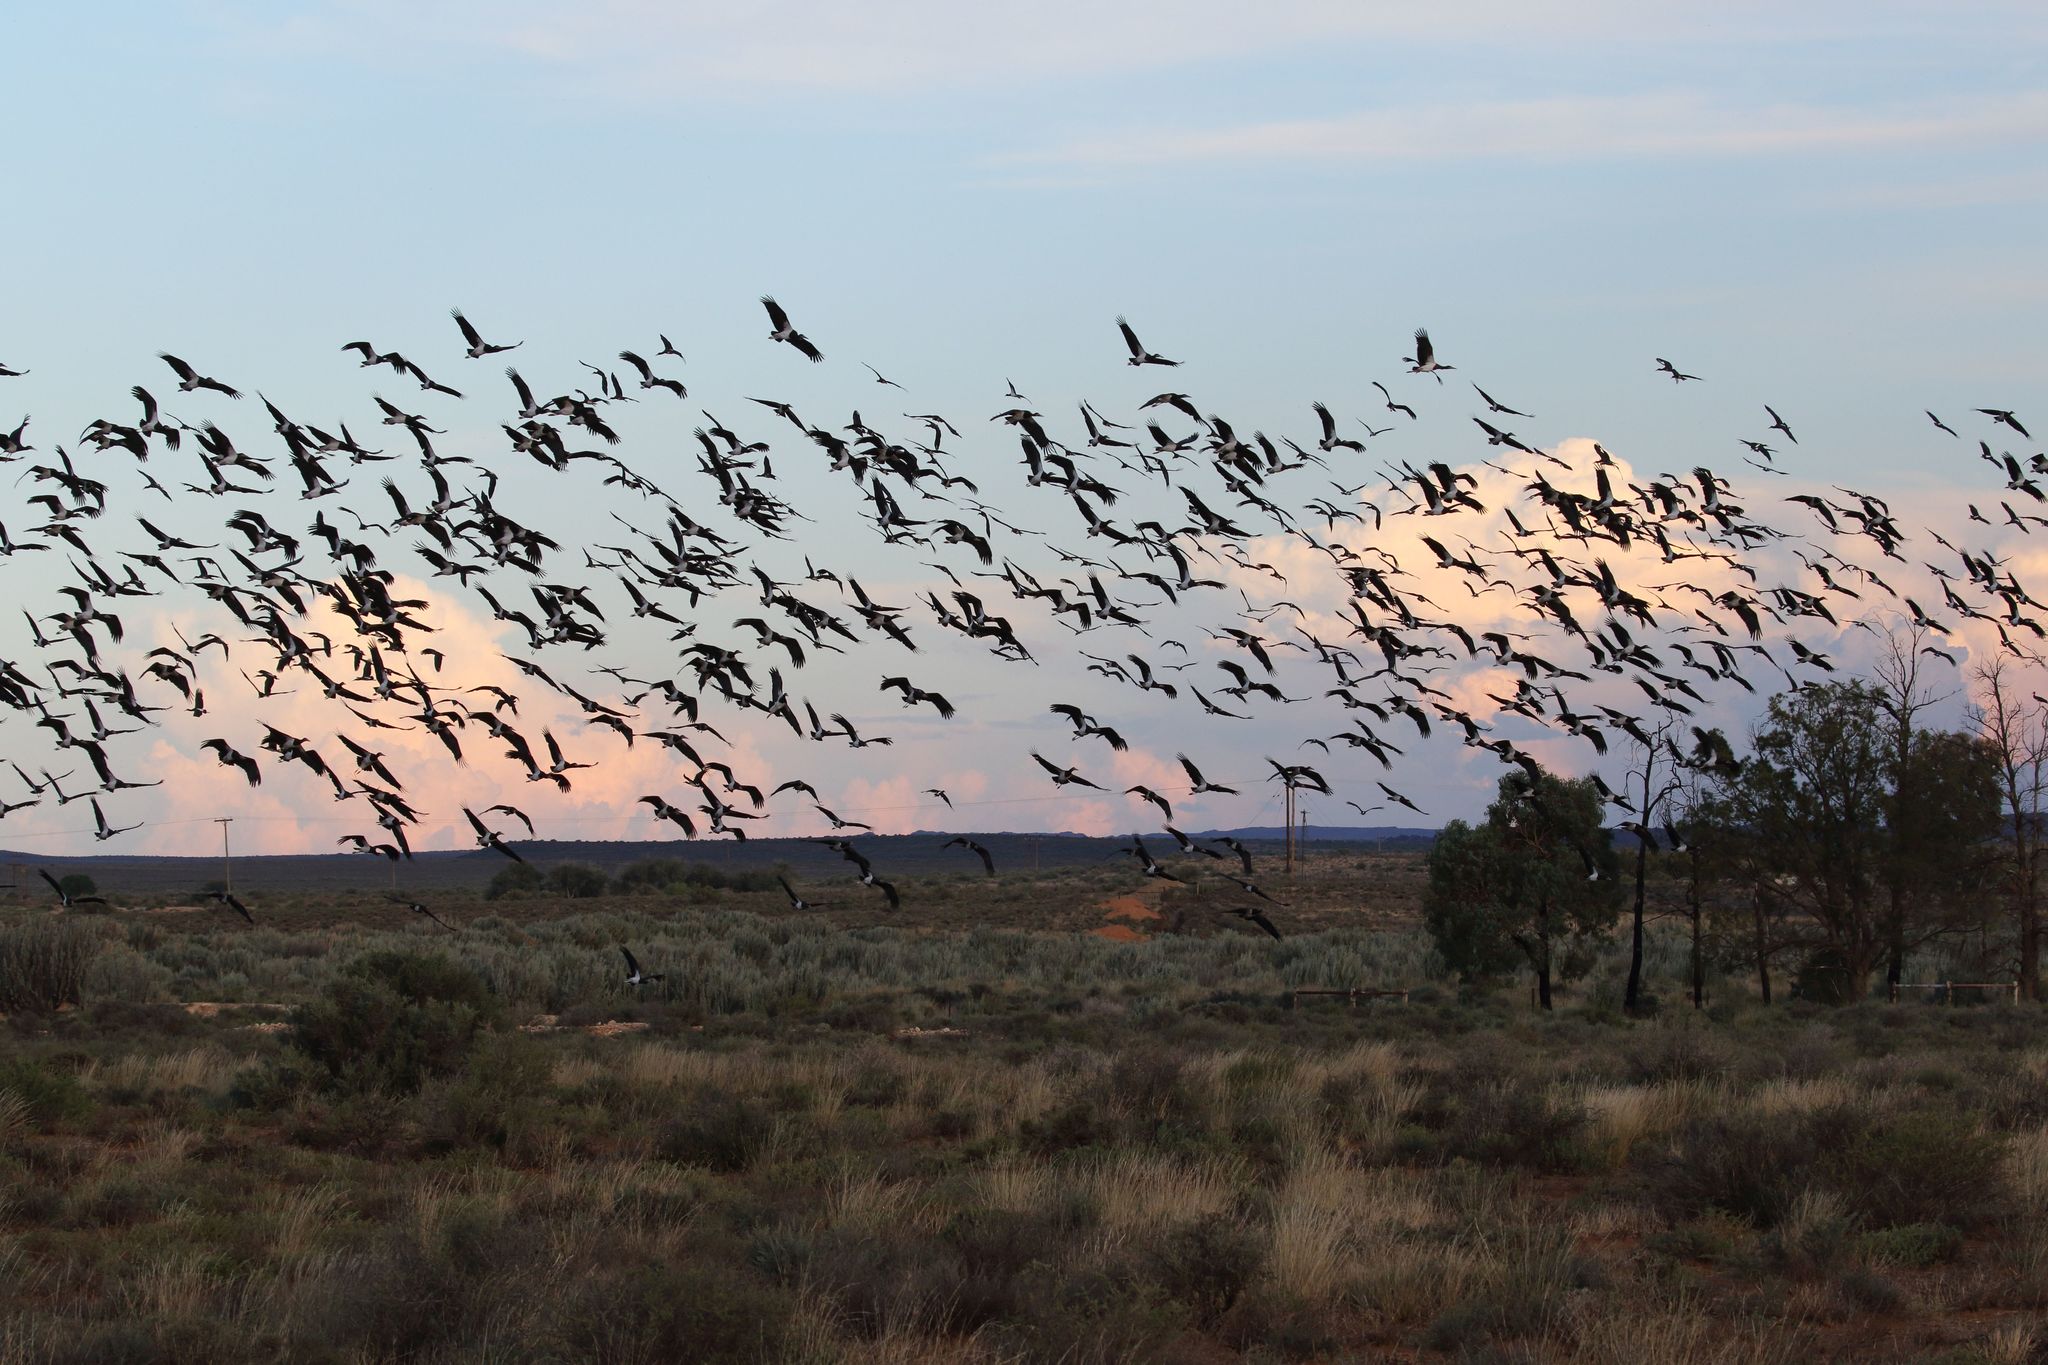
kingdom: Animalia
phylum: Chordata
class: Aves
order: Ciconiiformes
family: Ciconiidae
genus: Ciconia
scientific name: Ciconia abdimii
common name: Abdim's stork
